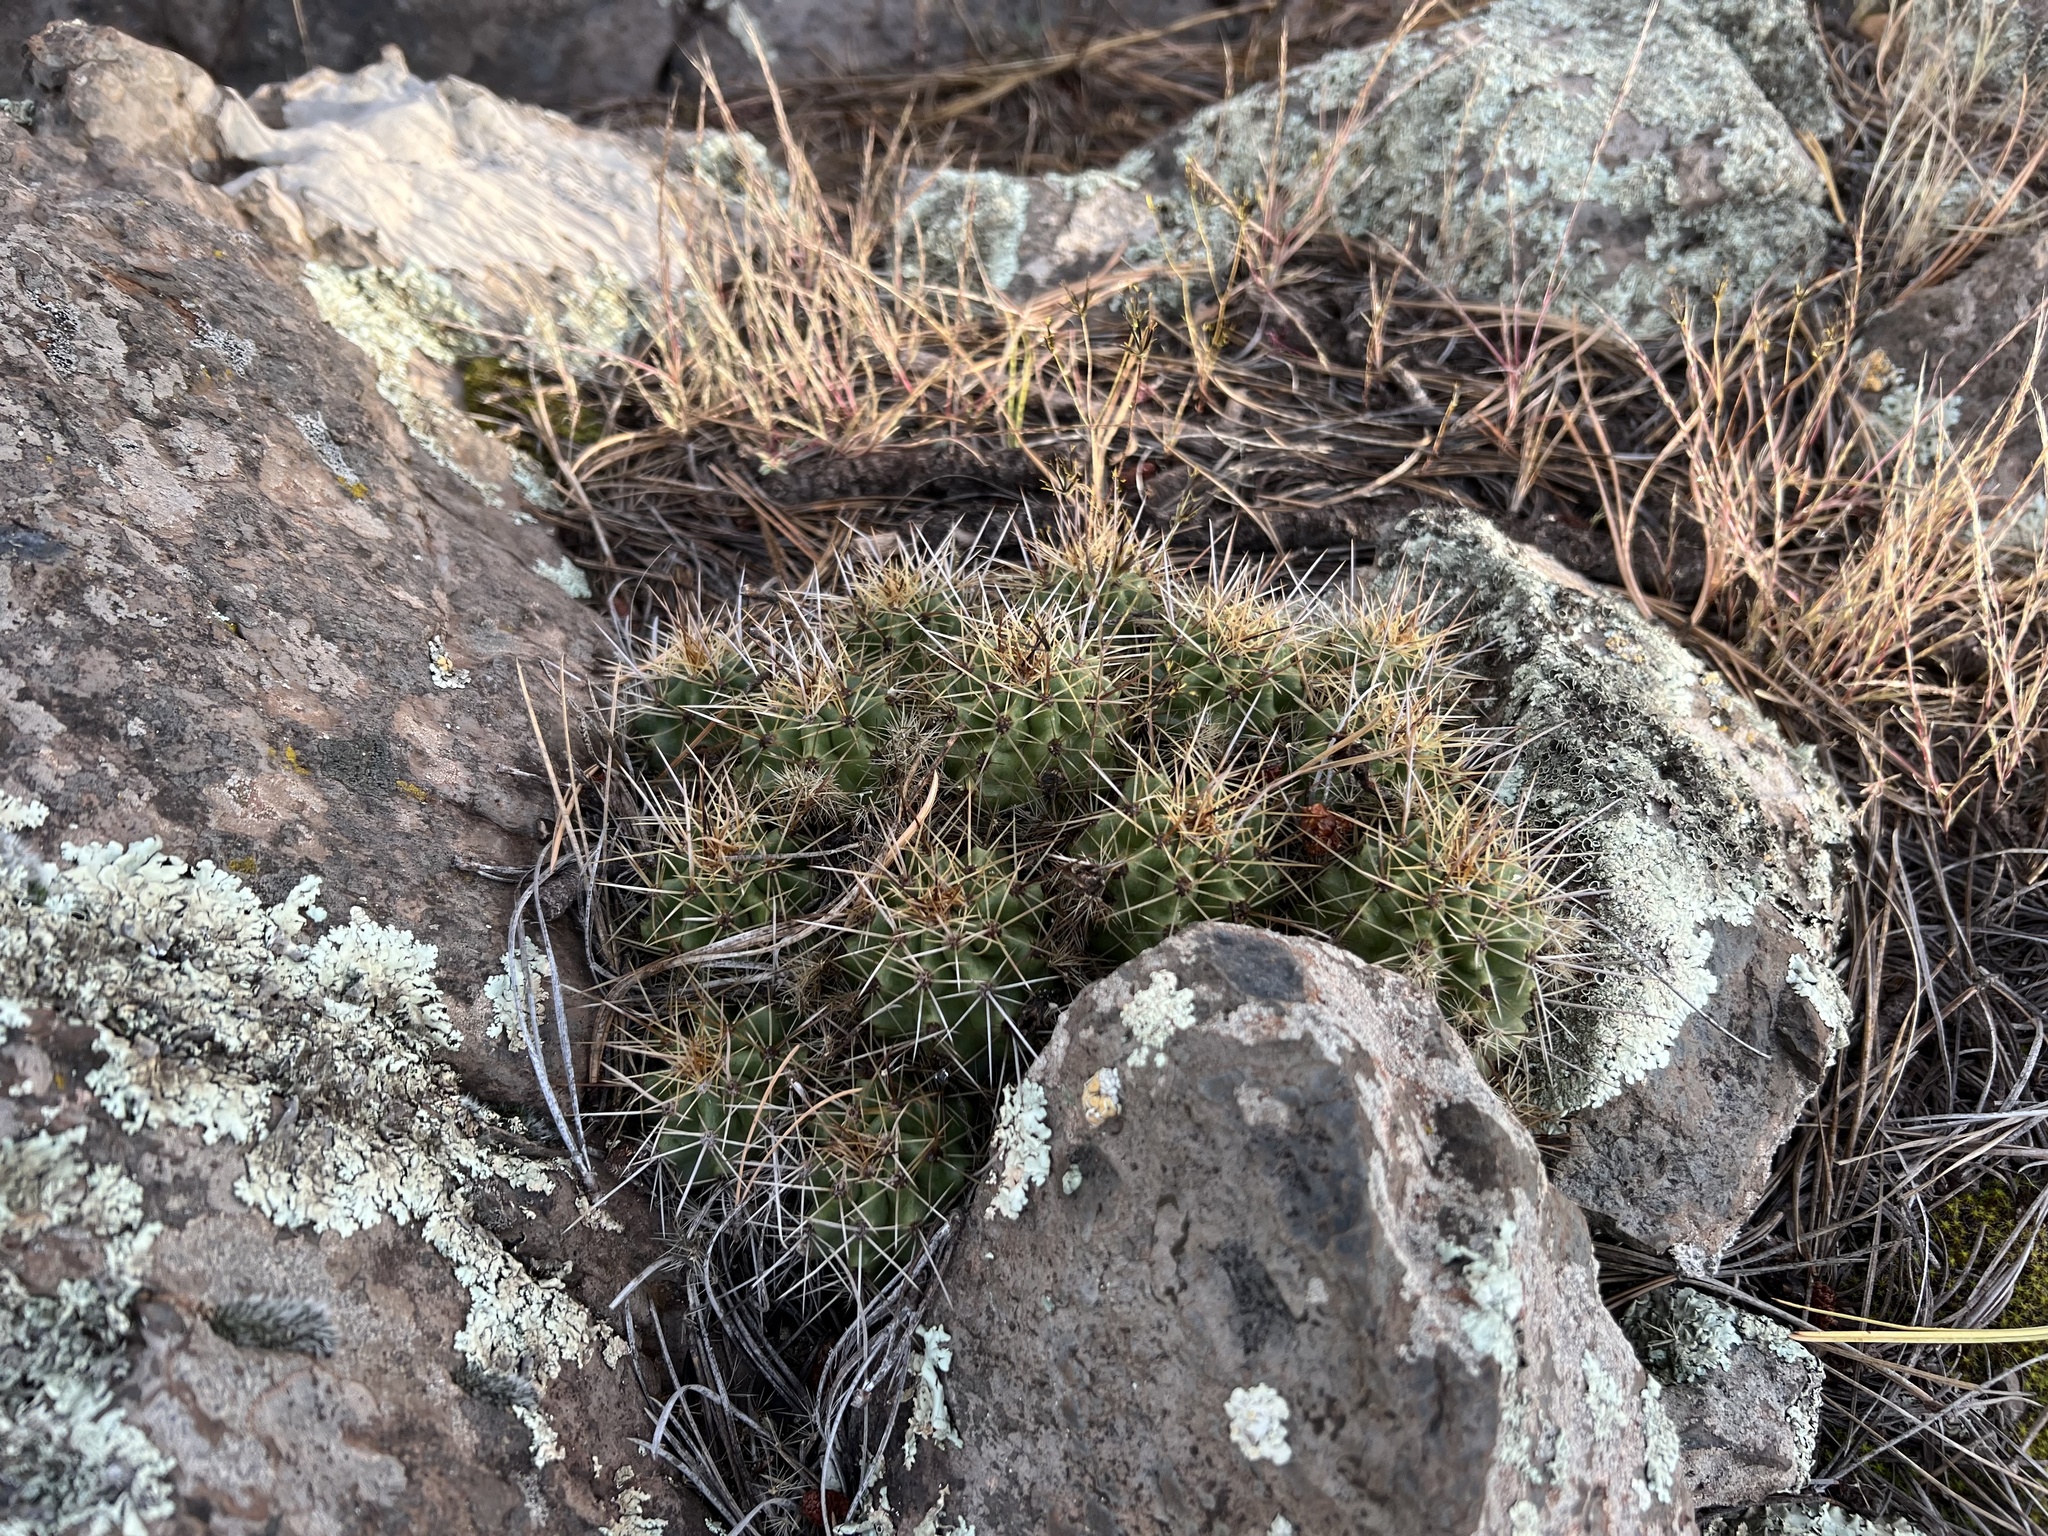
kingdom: Plantae
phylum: Tracheophyta
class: Magnoliopsida
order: Caryophyllales
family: Cactaceae
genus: Echinocereus
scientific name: Echinocereus bakeri
